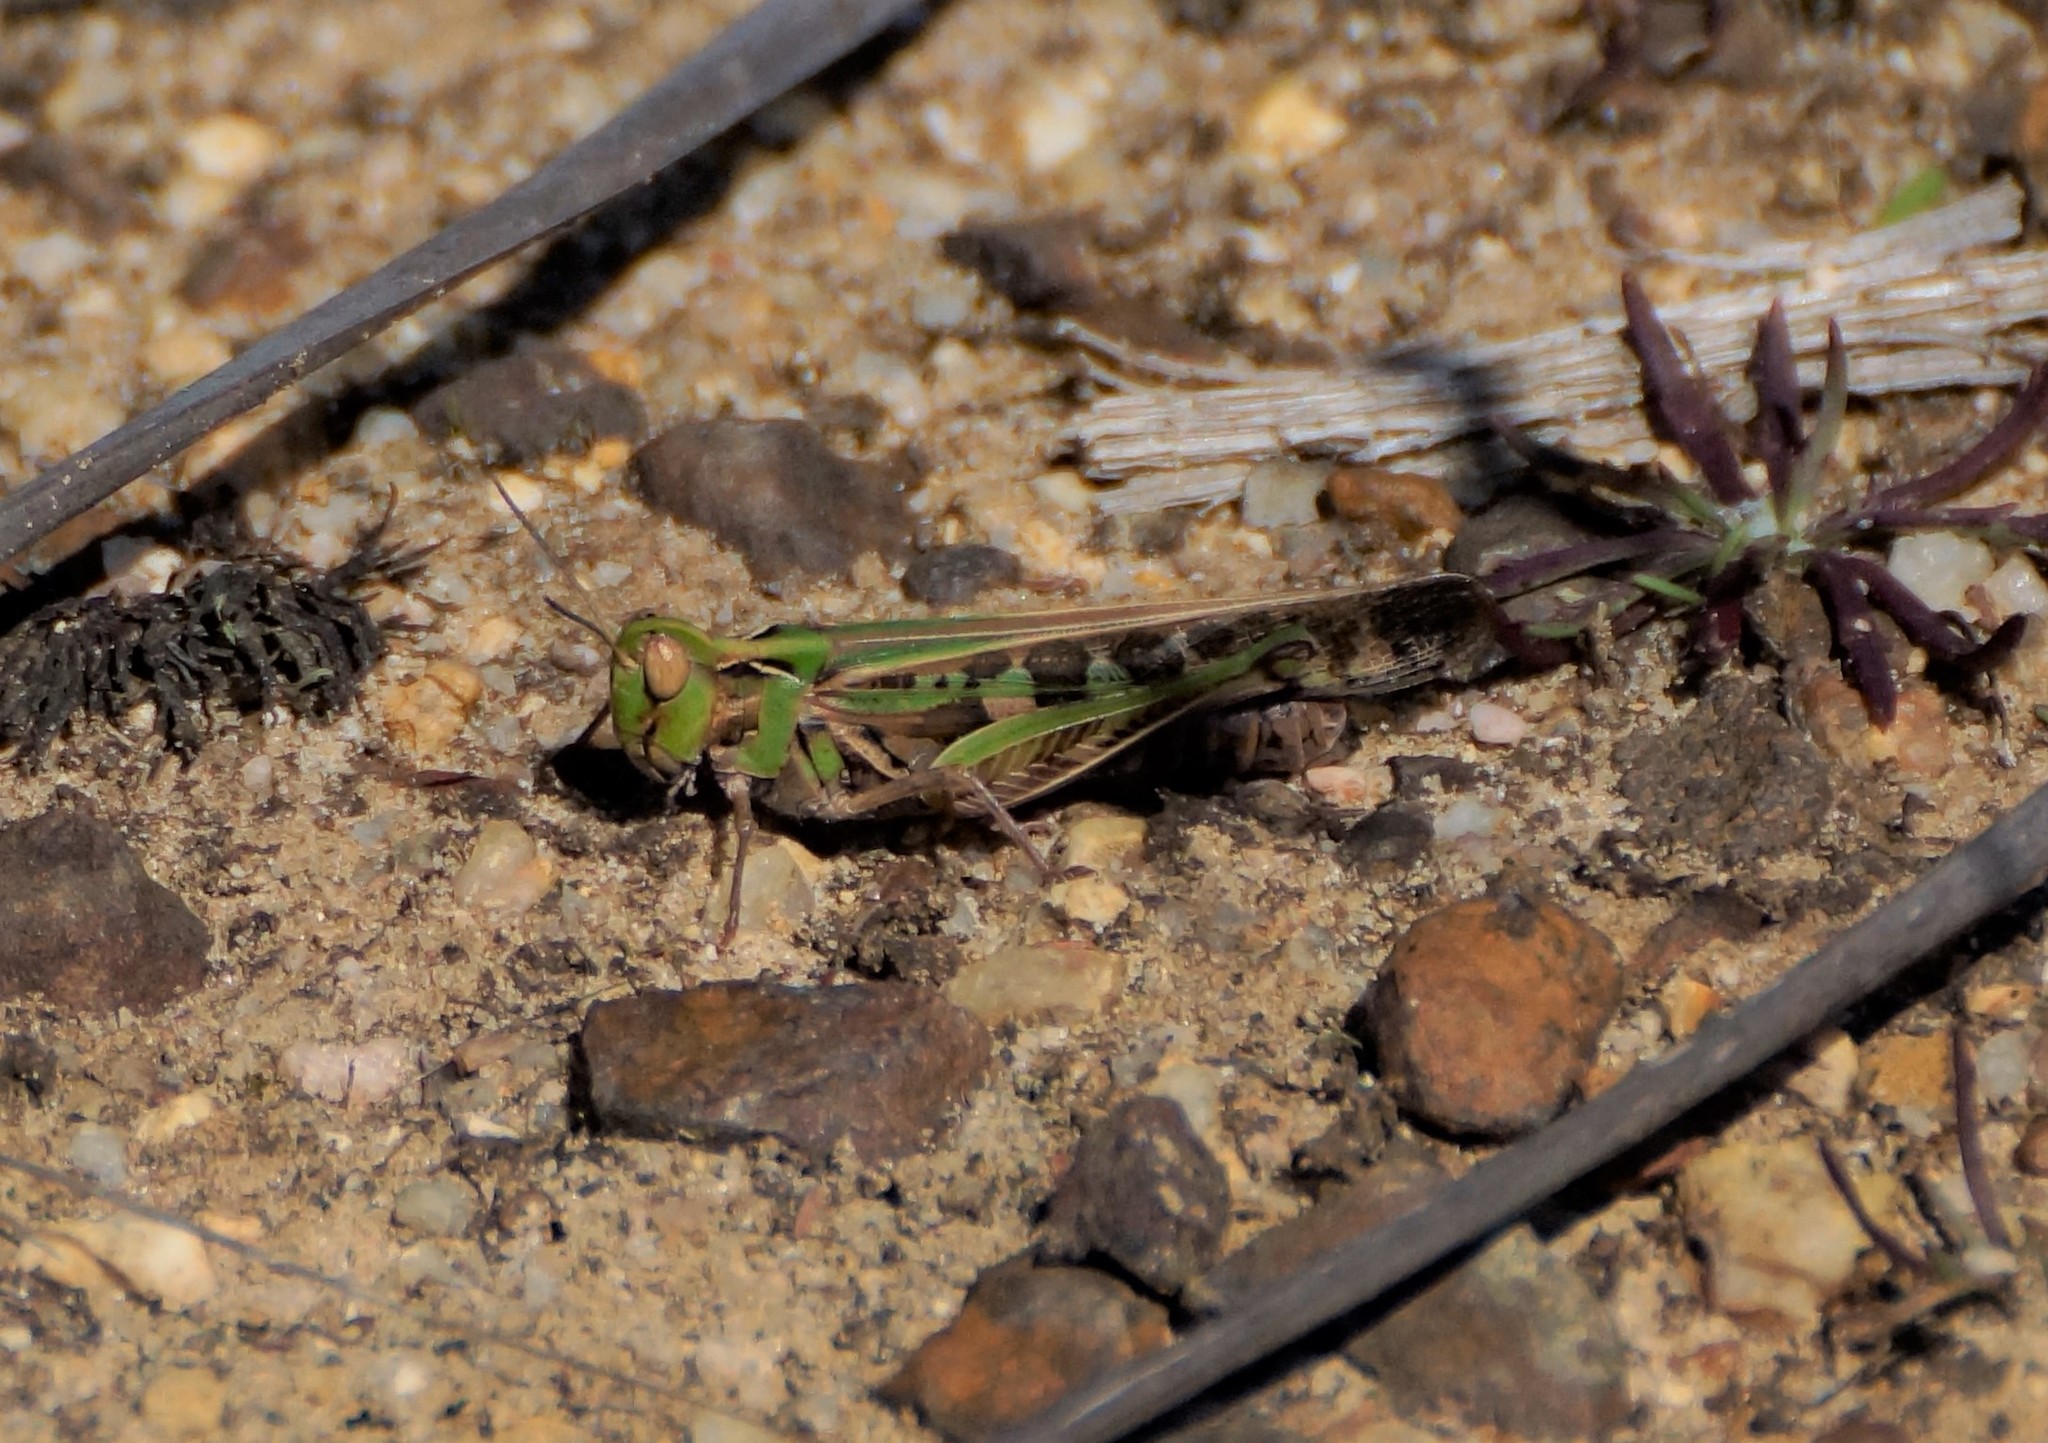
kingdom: Animalia
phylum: Arthropoda
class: Insecta
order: Orthoptera
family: Acrididae
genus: Chortoicetes
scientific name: Chortoicetes terminifera
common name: Australian plague locust
